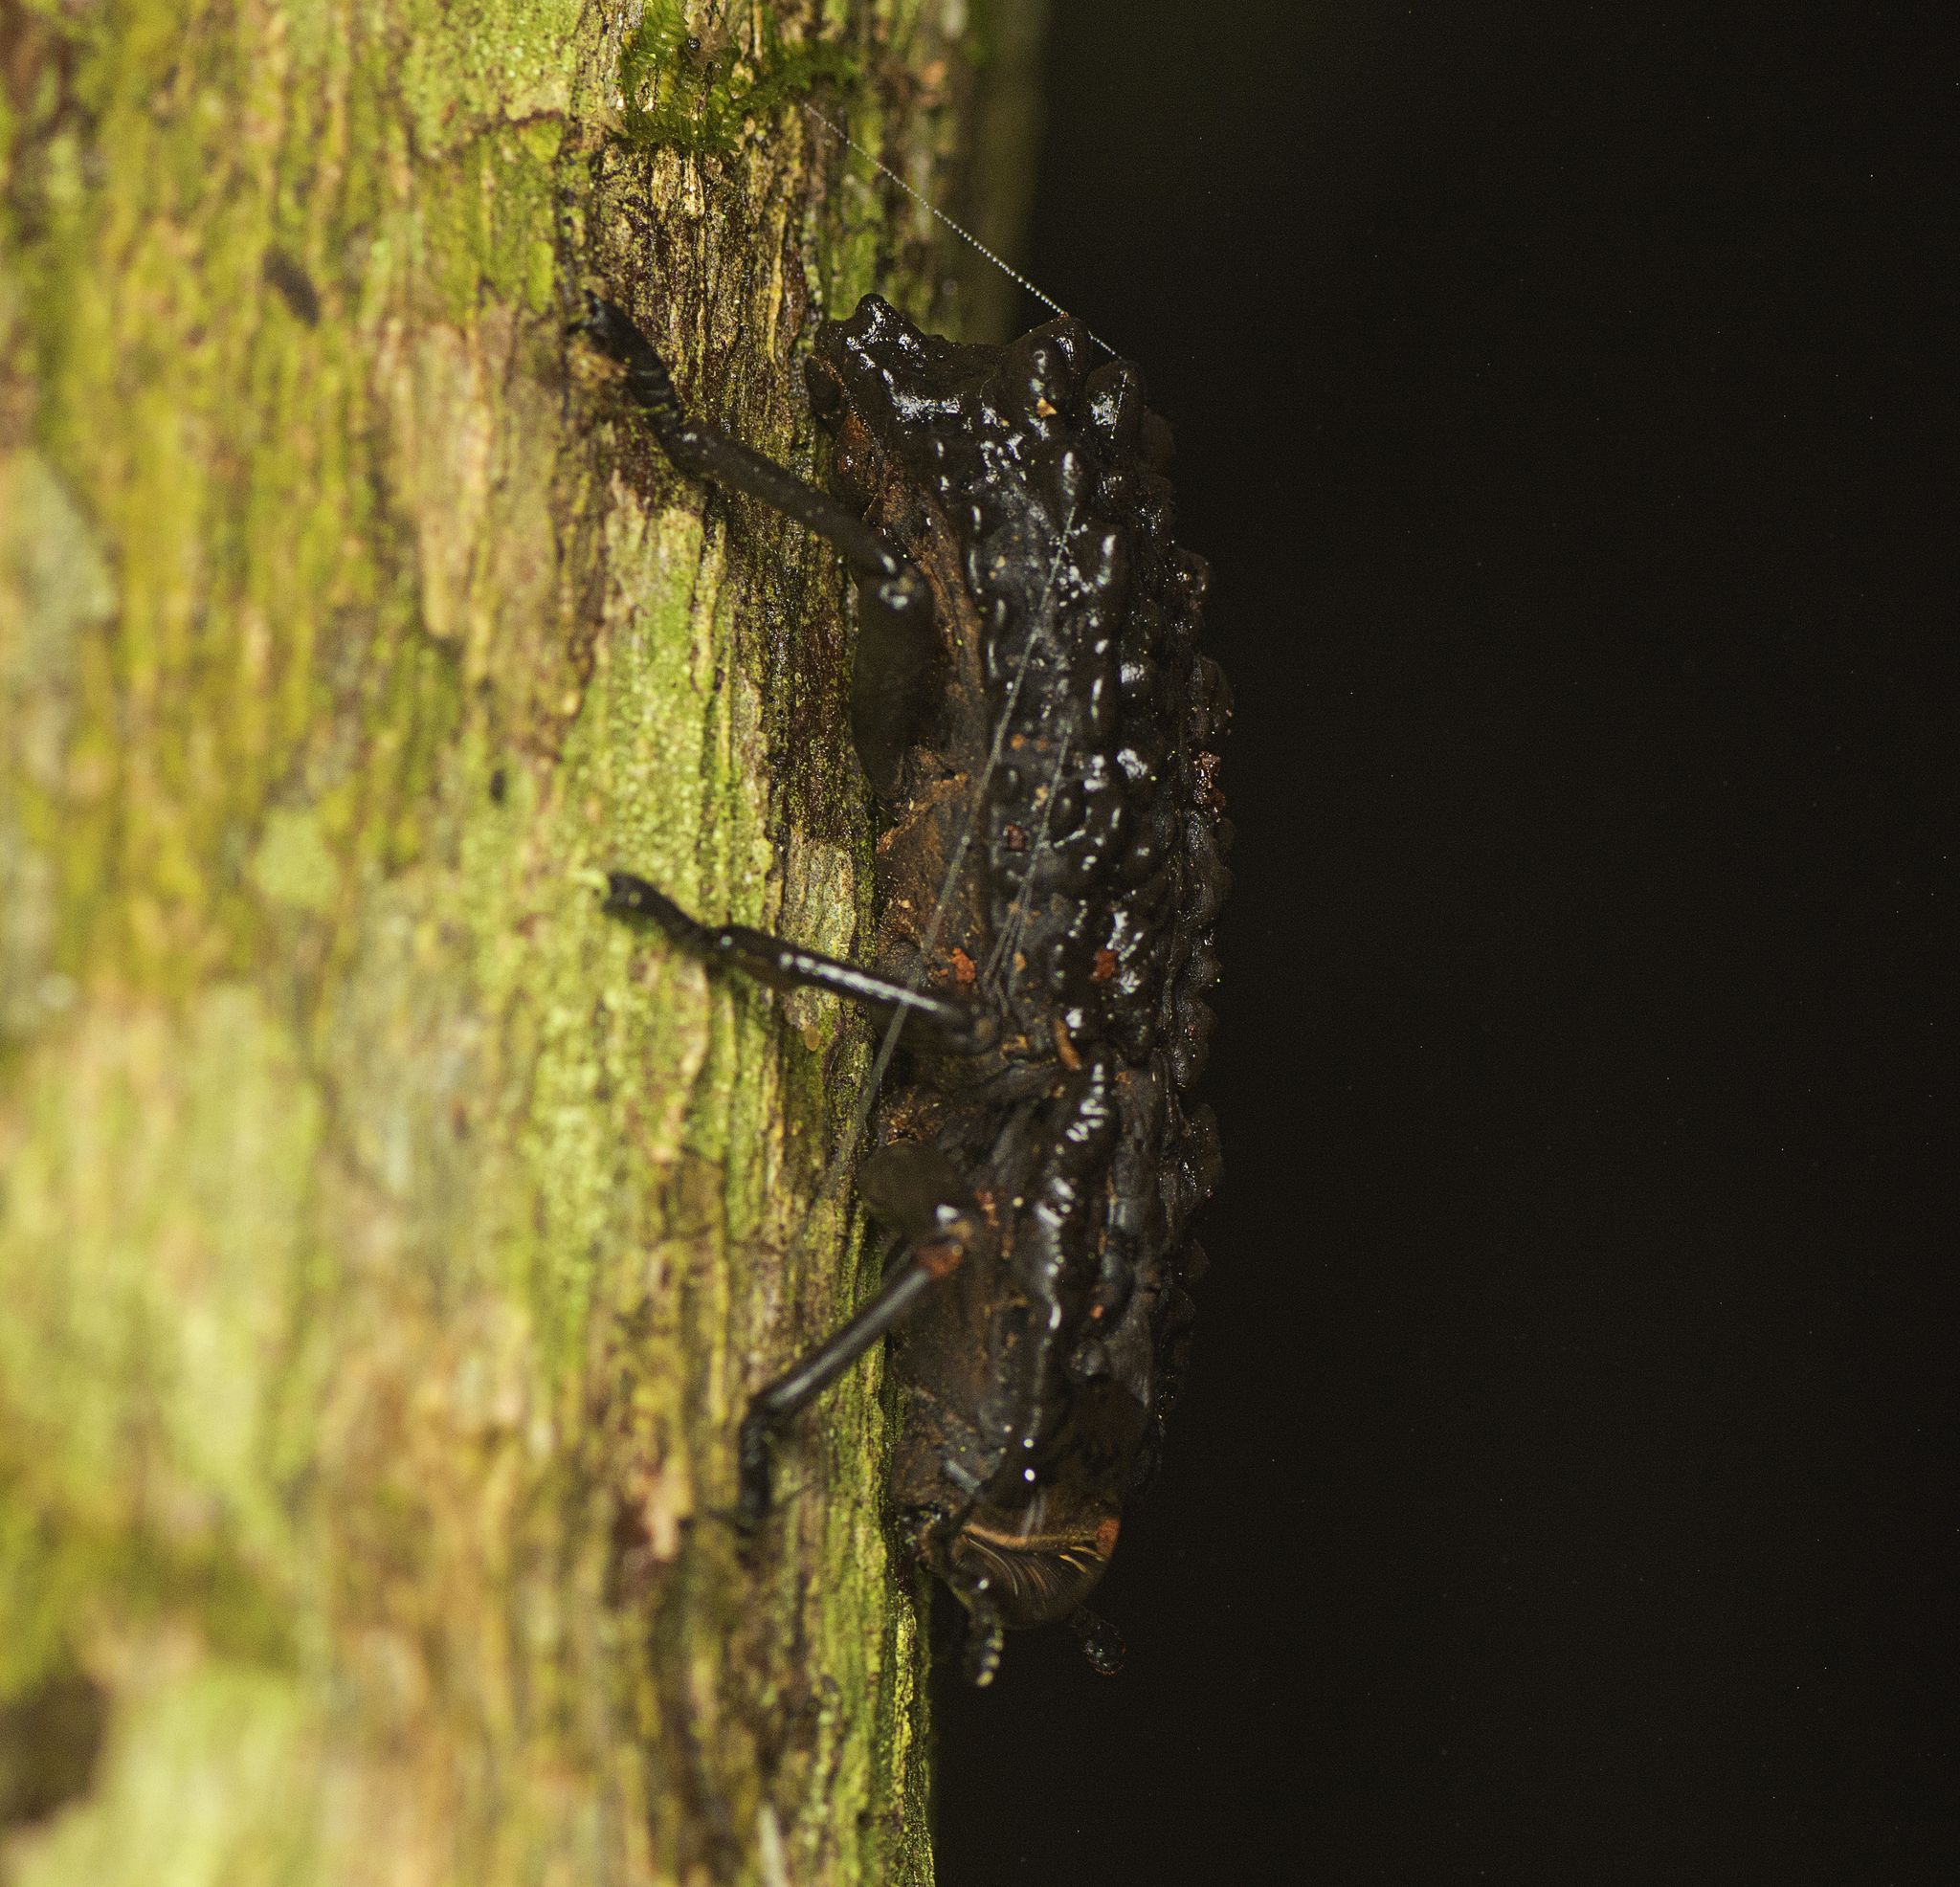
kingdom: Animalia
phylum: Arthropoda
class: Insecta
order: Coleoptera
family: Zopheridae
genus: Zopherosis
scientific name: Zopherosis
